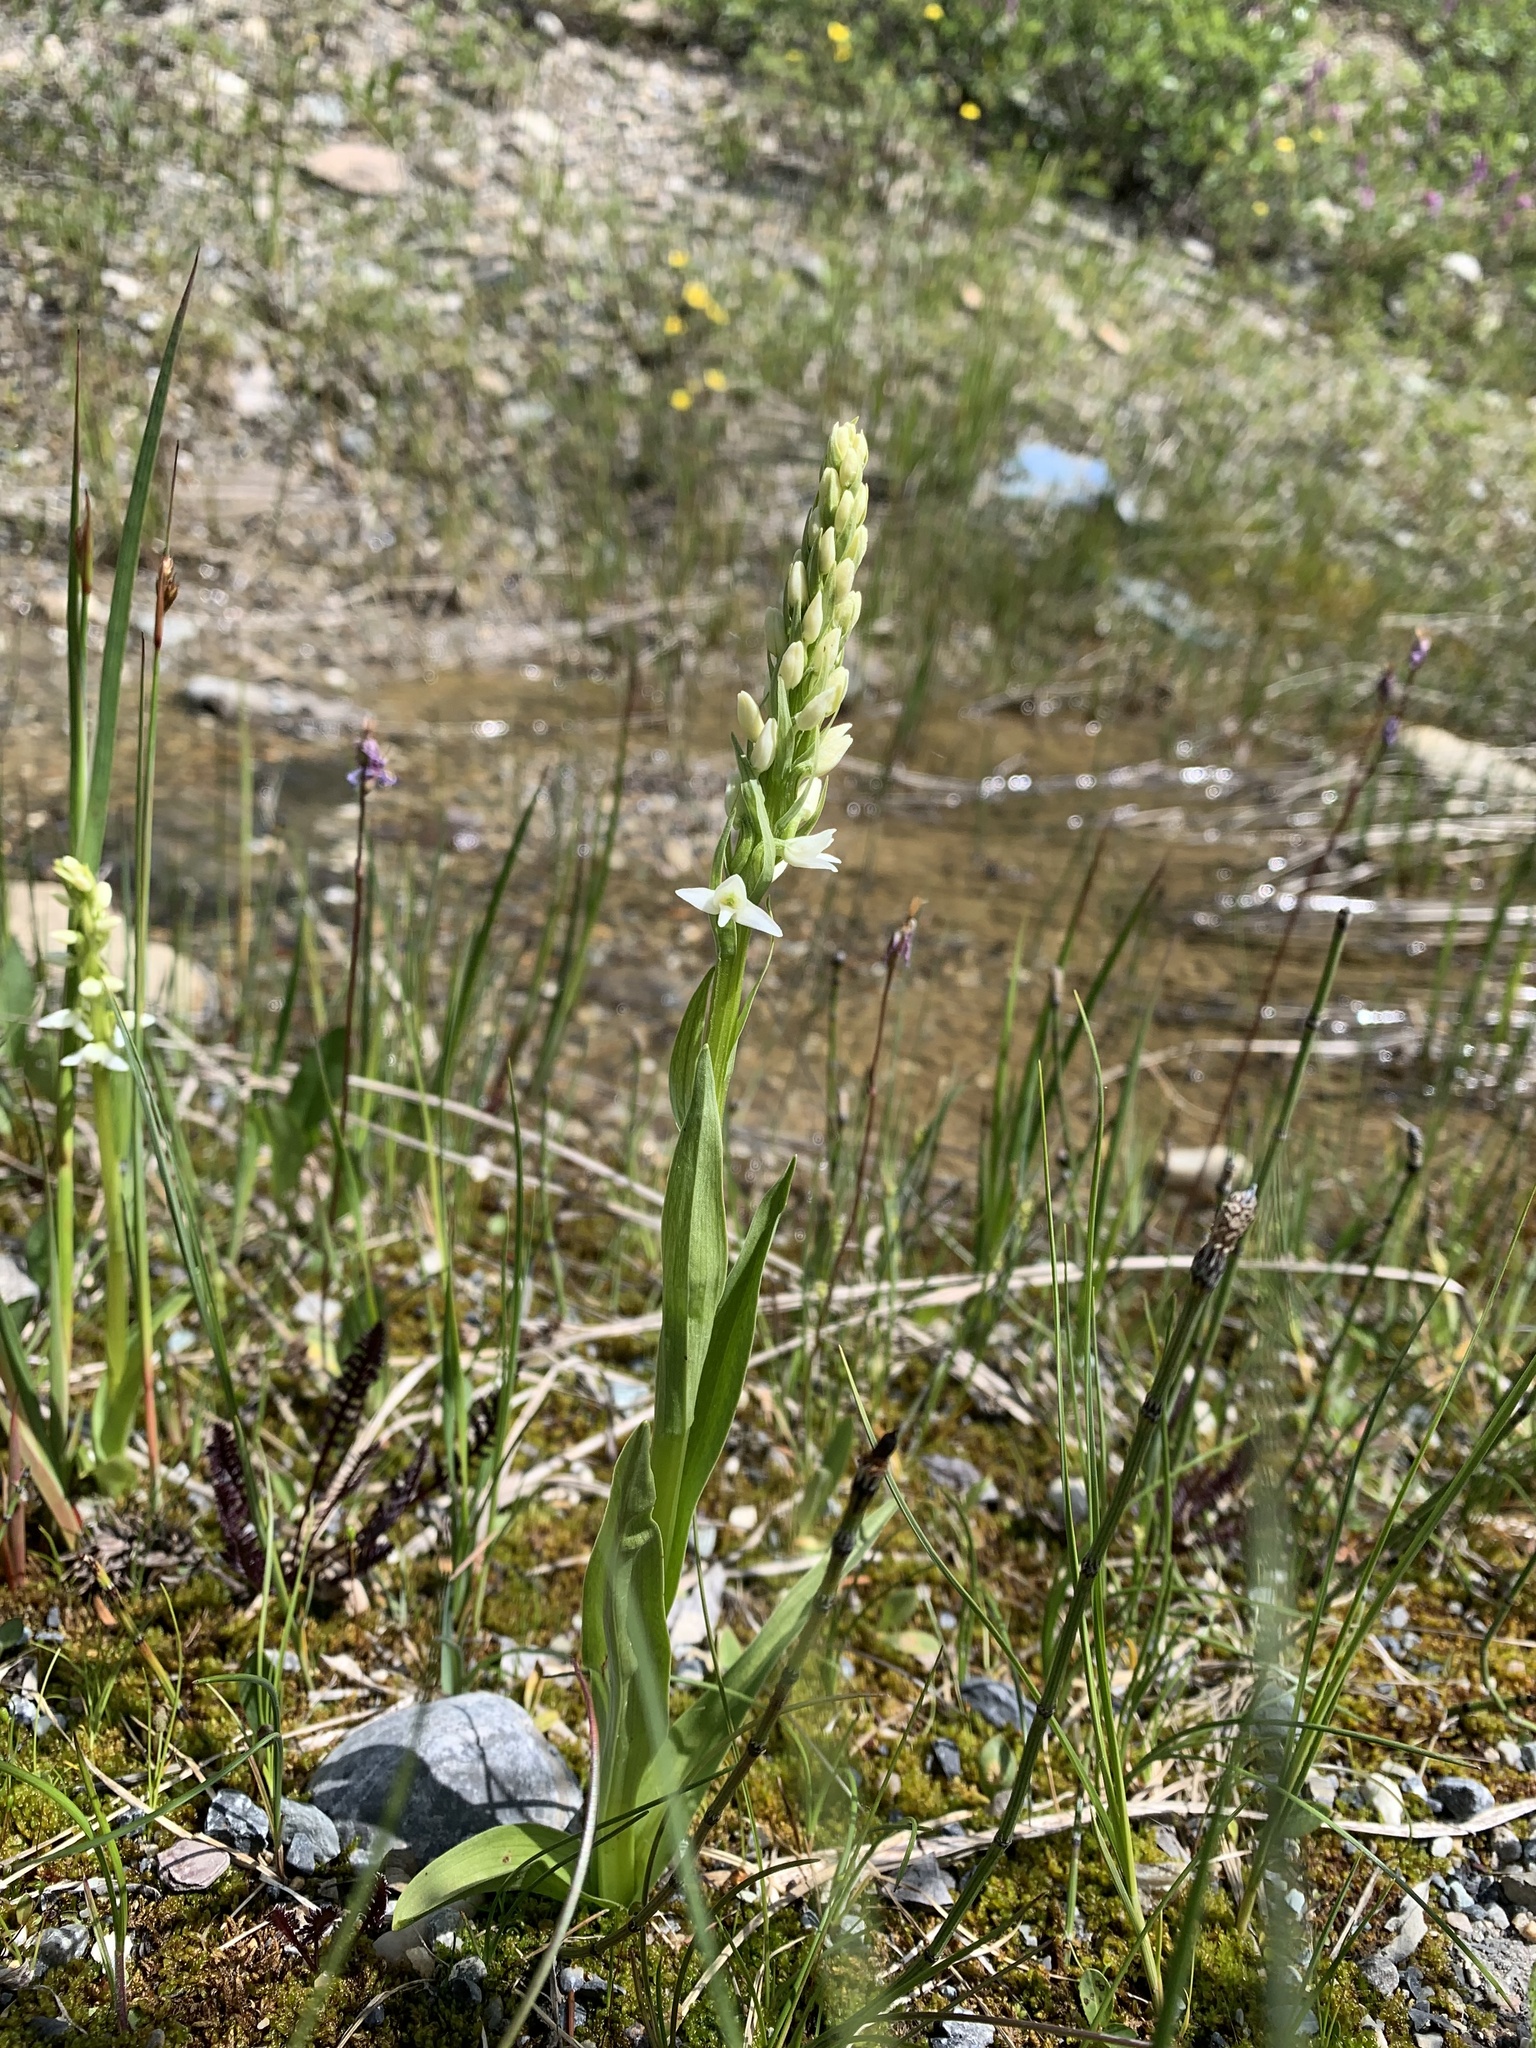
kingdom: Plantae
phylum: Tracheophyta
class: Liliopsida
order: Asparagales
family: Orchidaceae
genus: Platanthera
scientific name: Platanthera dilatata
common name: Bog candles
